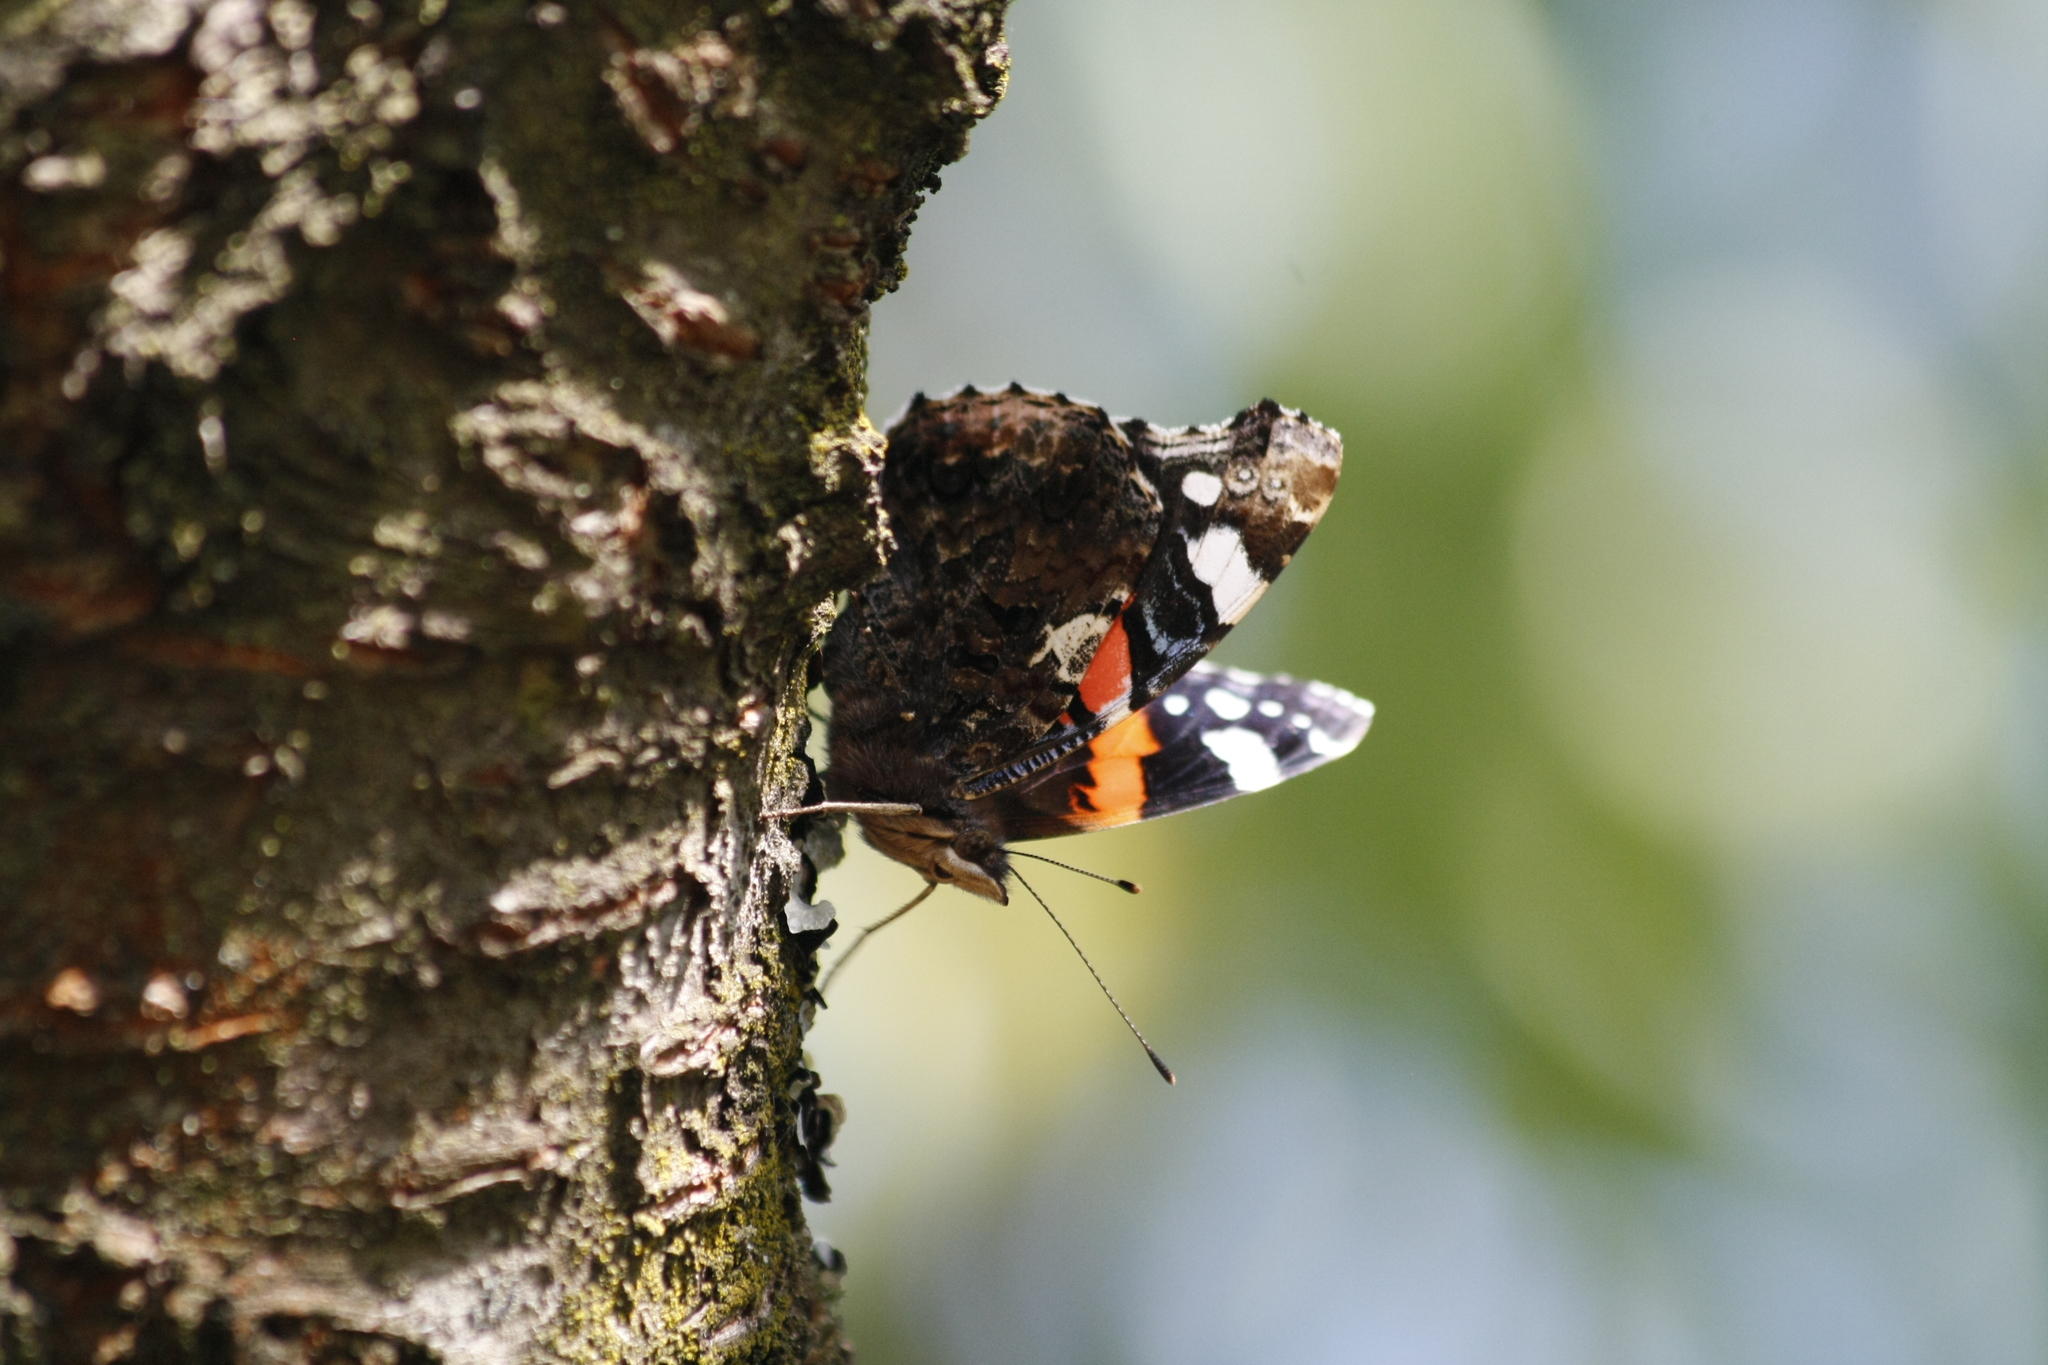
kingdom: Animalia
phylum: Arthropoda
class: Insecta
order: Lepidoptera
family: Nymphalidae
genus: Vanessa
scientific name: Vanessa atalanta
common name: Red admiral
